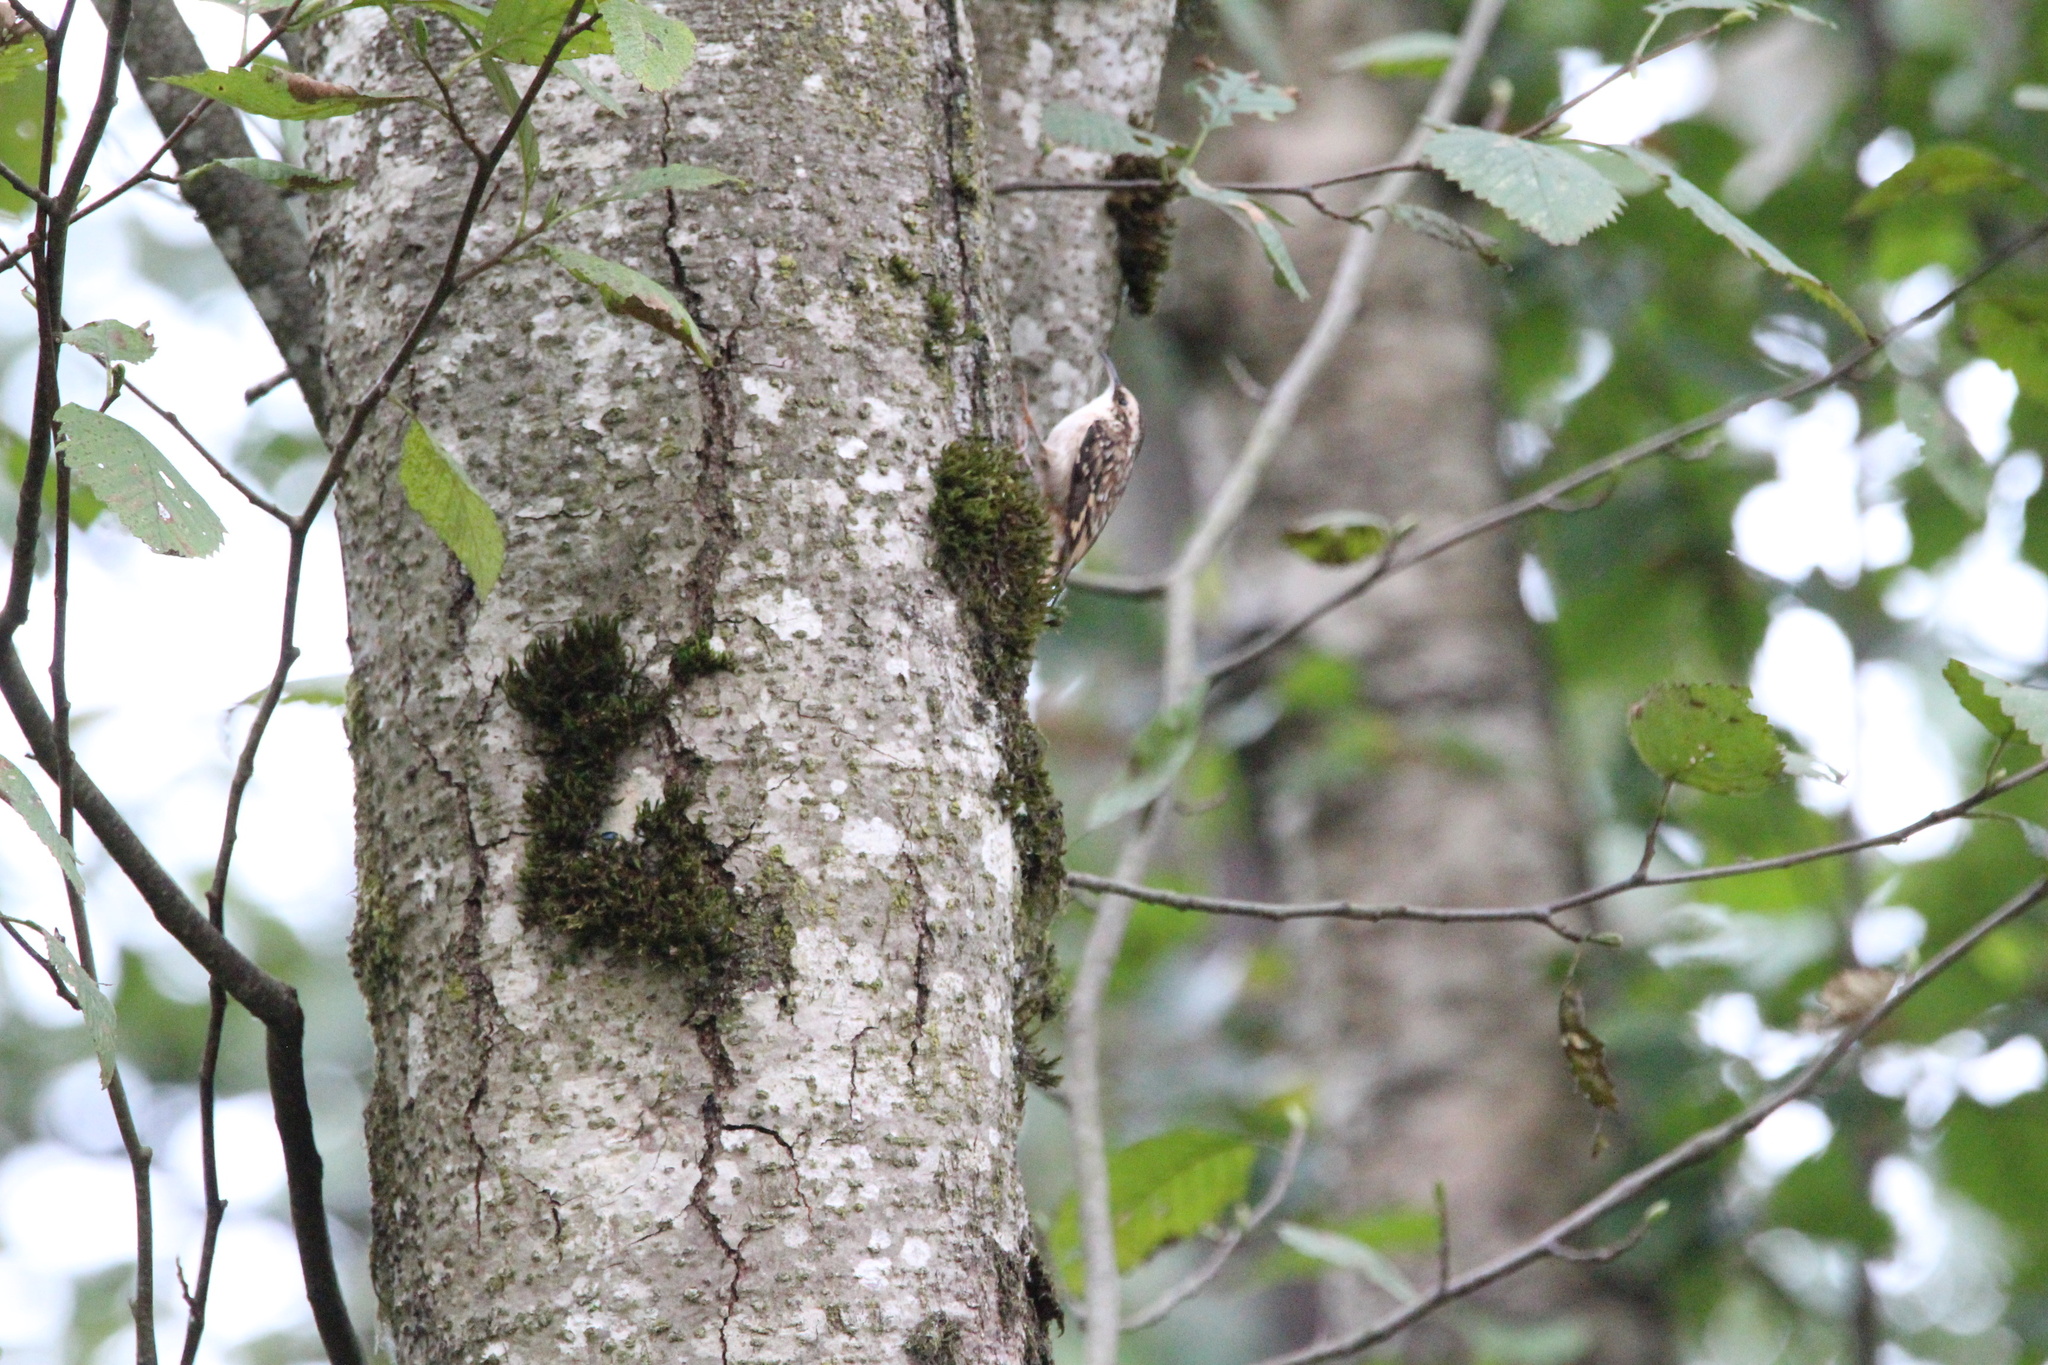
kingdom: Animalia
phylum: Chordata
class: Aves
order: Passeriformes
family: Certhiidae
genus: Certhia
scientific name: Certhia americana
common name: Brown creeper
